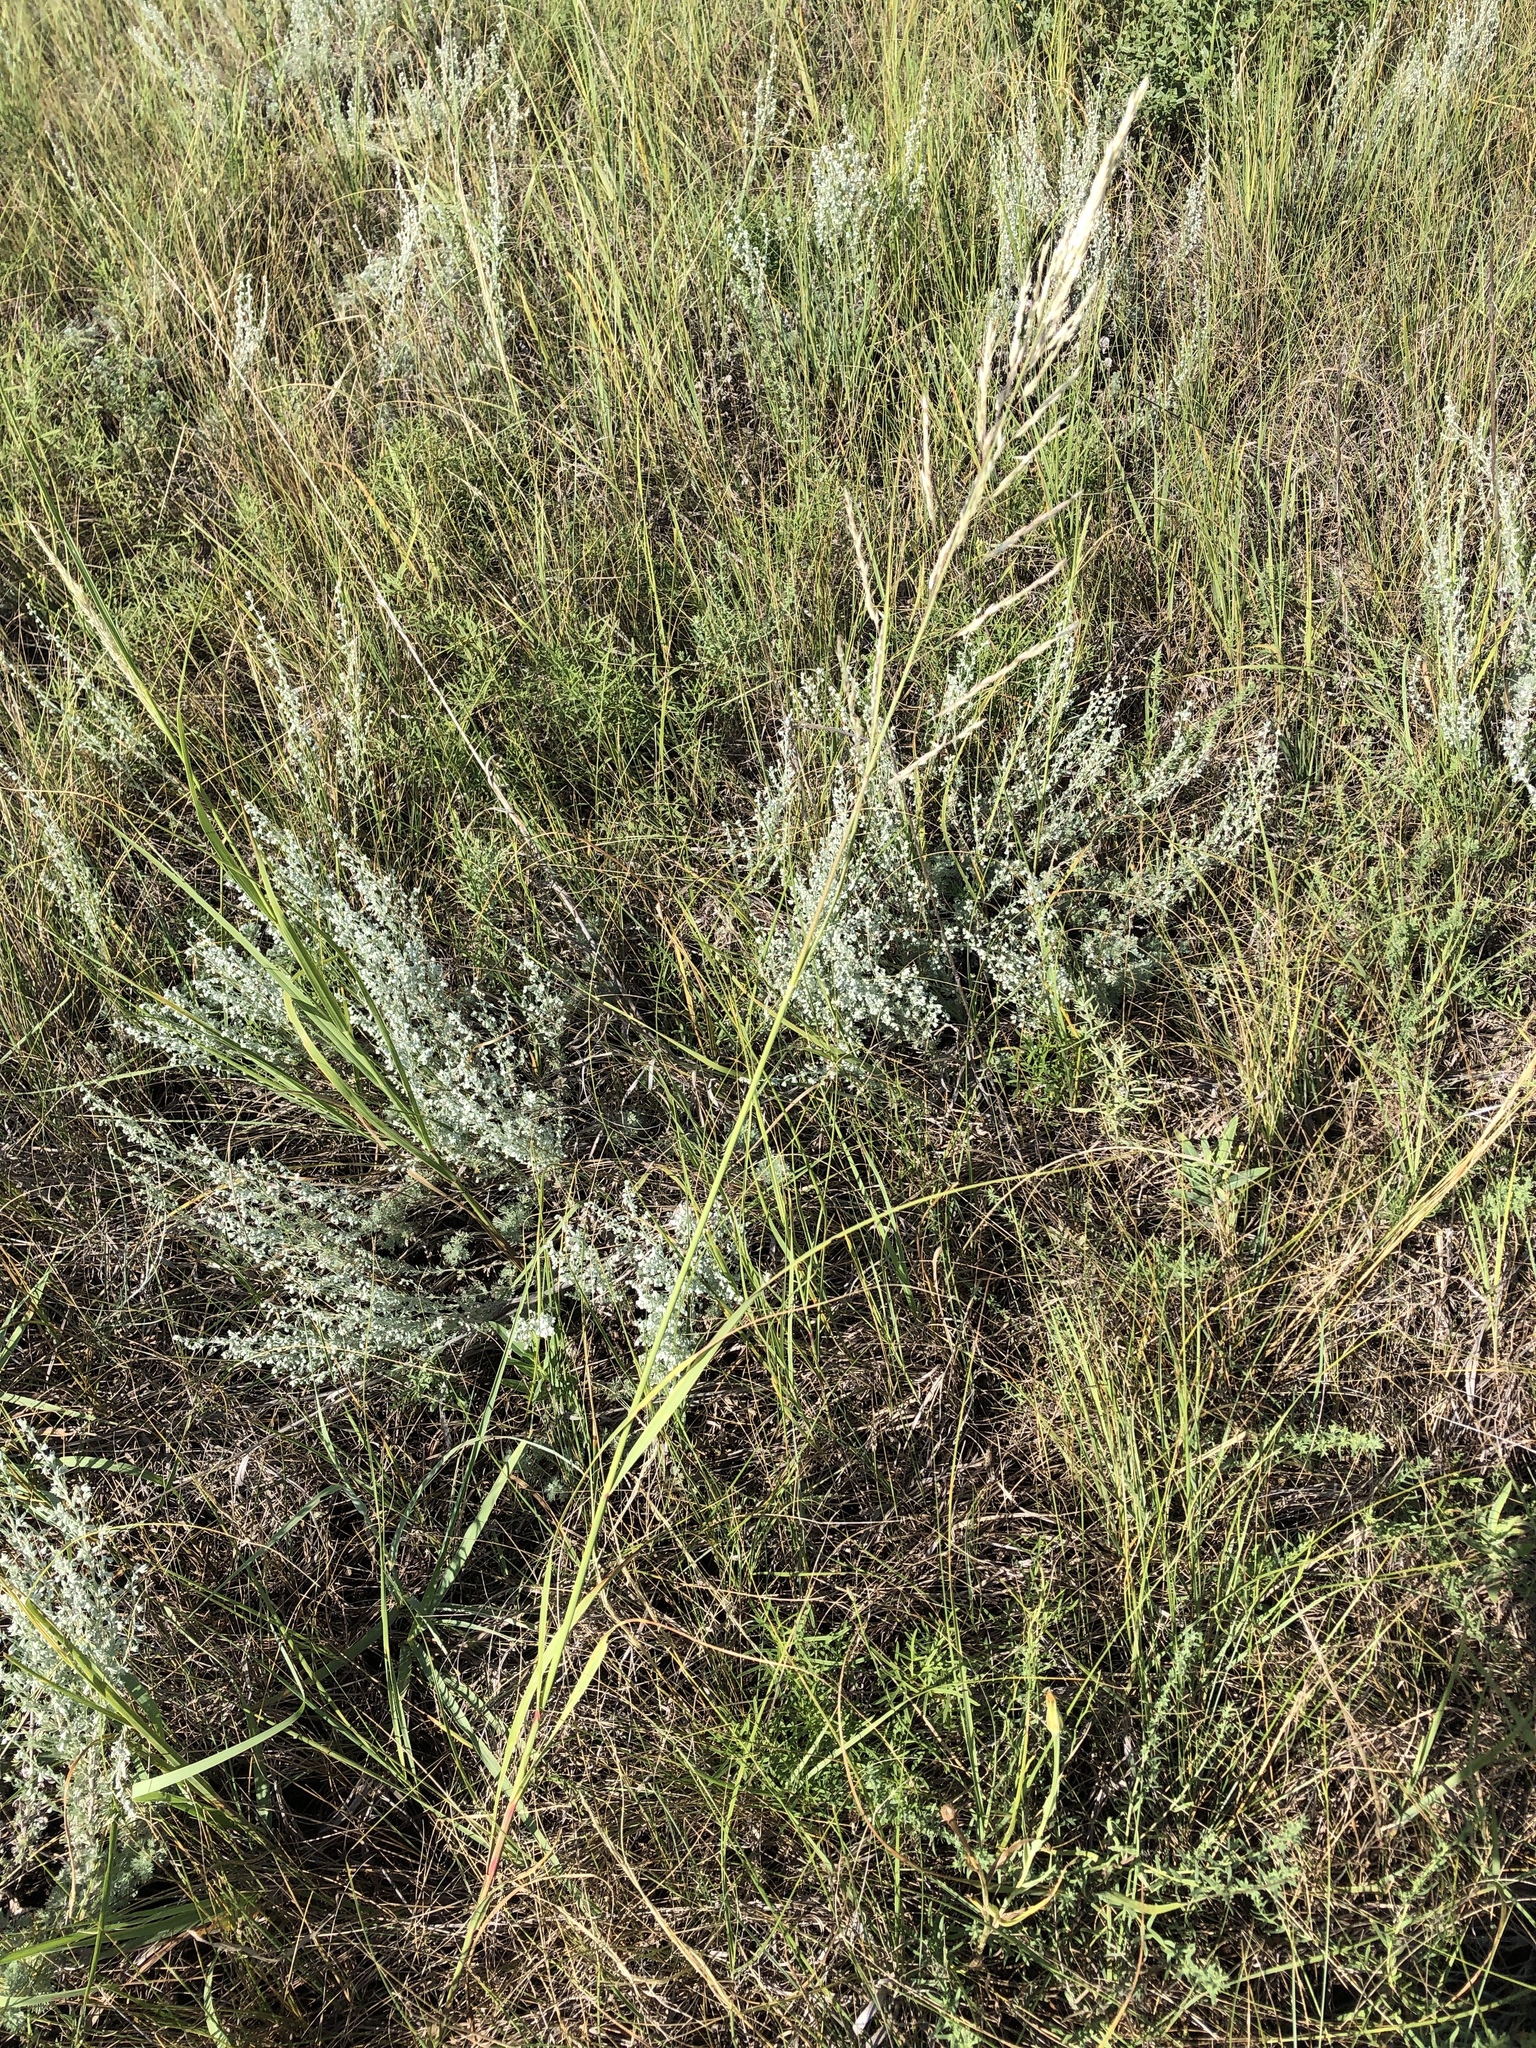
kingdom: Plantae
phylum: Tracheophyta
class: Liliopsida
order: Poales
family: Poaceae
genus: Sporobolus
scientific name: Sporobolus rigidus
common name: Prairie sandreed
